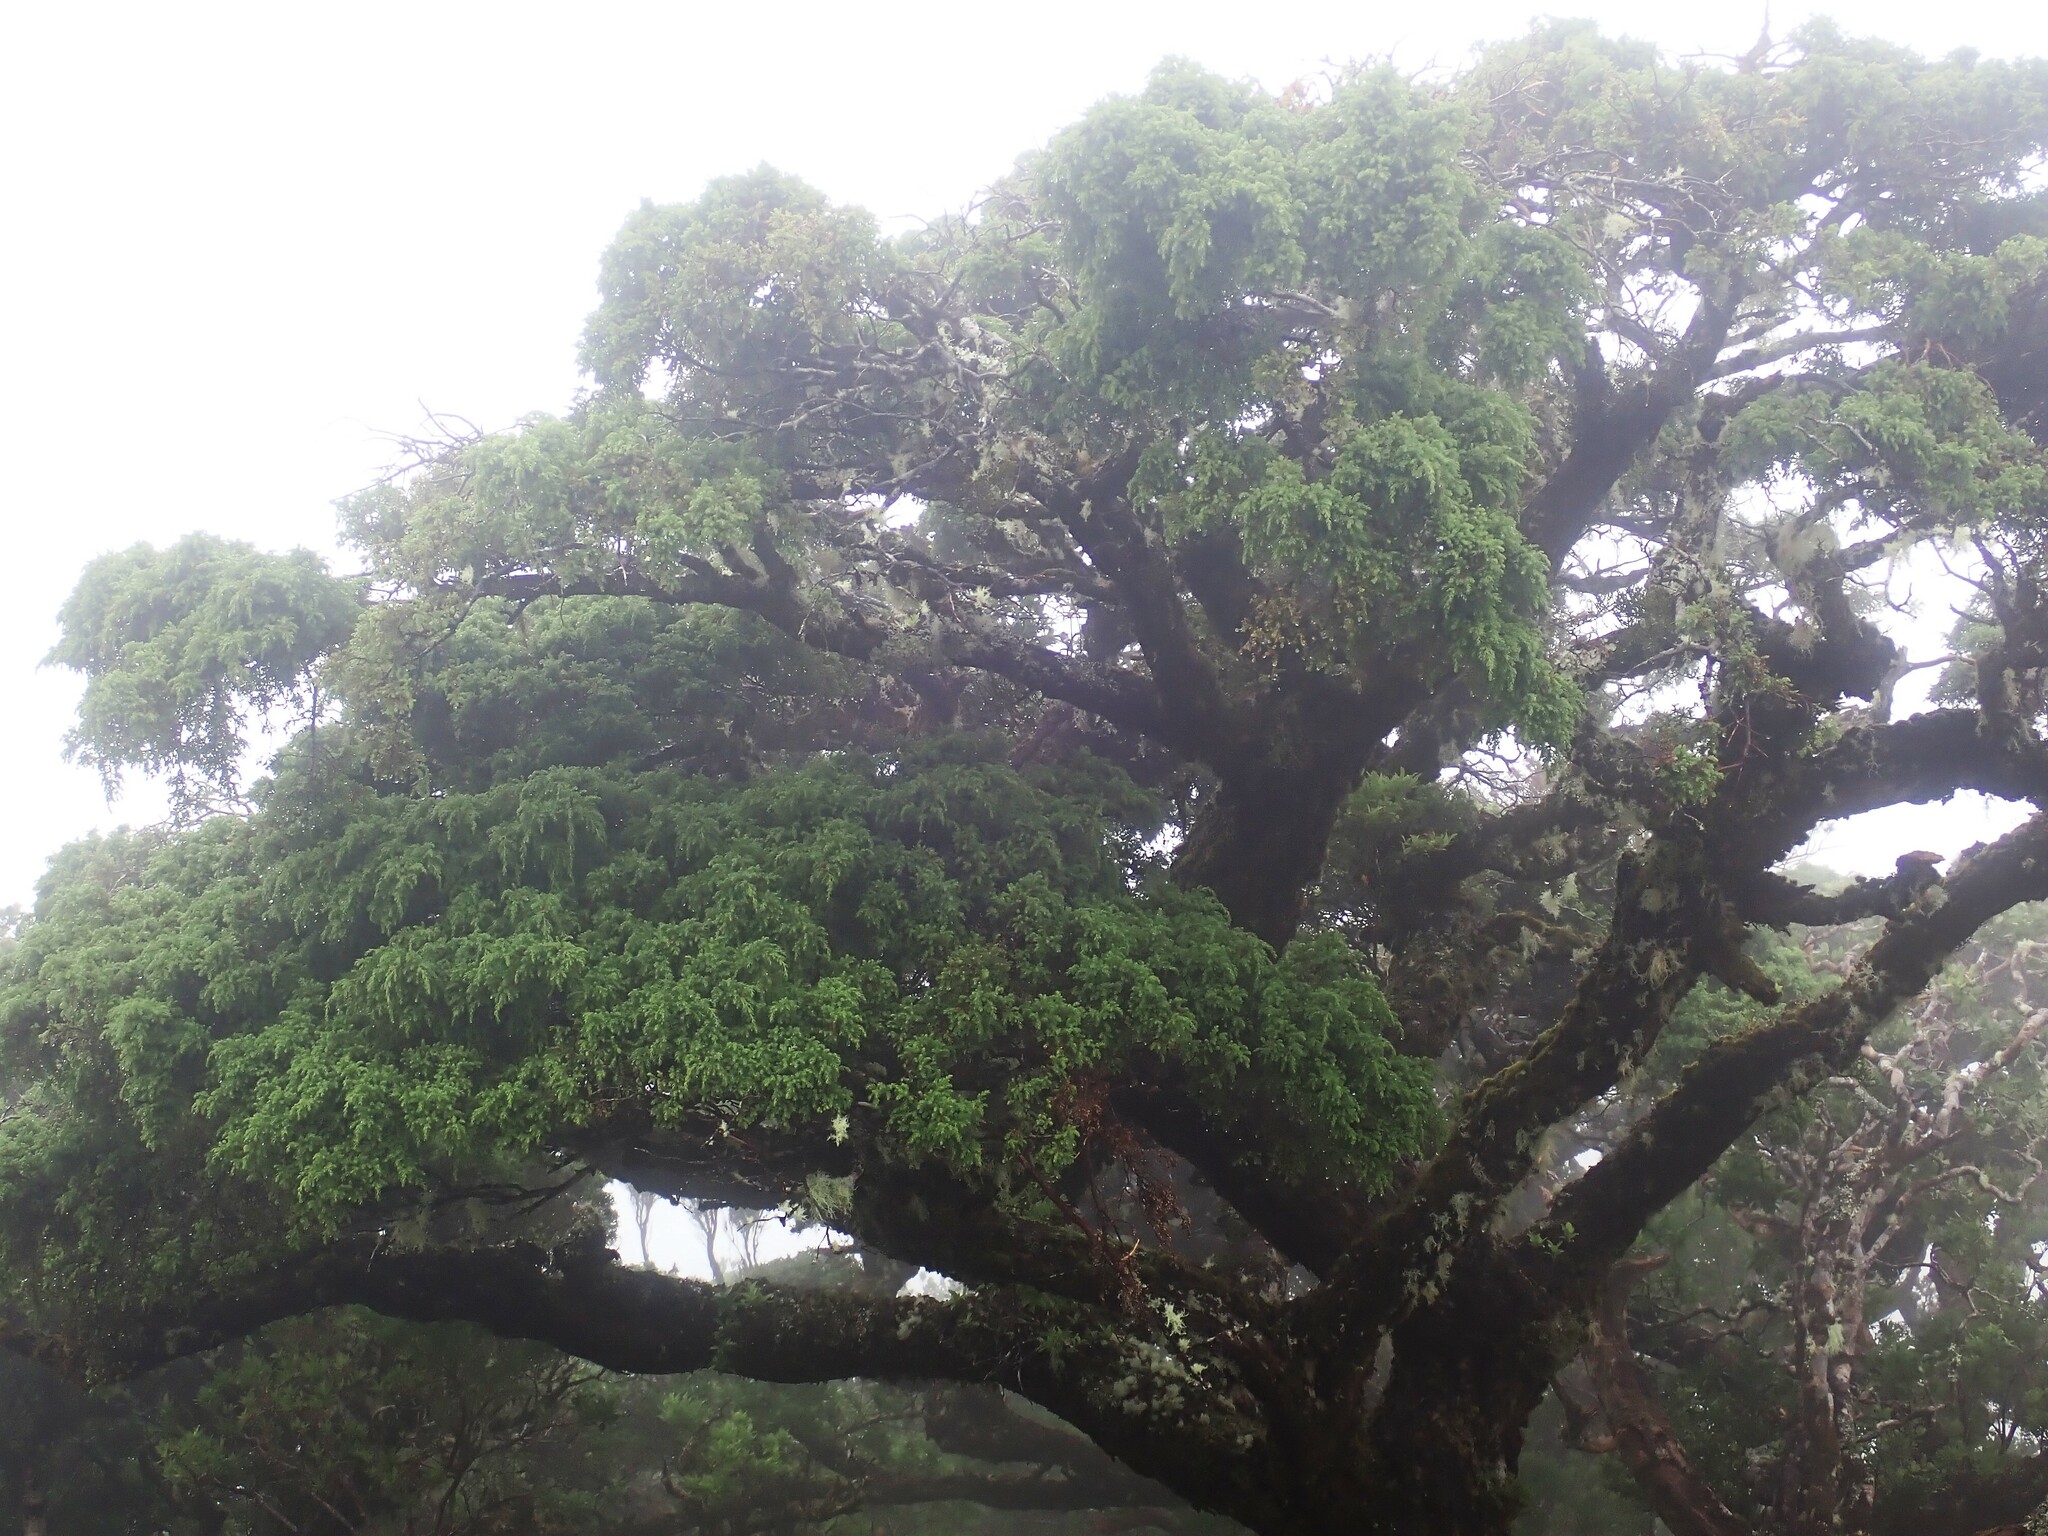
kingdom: Plantae
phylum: Tracheophyta
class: Pinopsida
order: Pinales
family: Cupressaceae
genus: Juniperus
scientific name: Juniperus brevifolia
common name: Azores juniper
